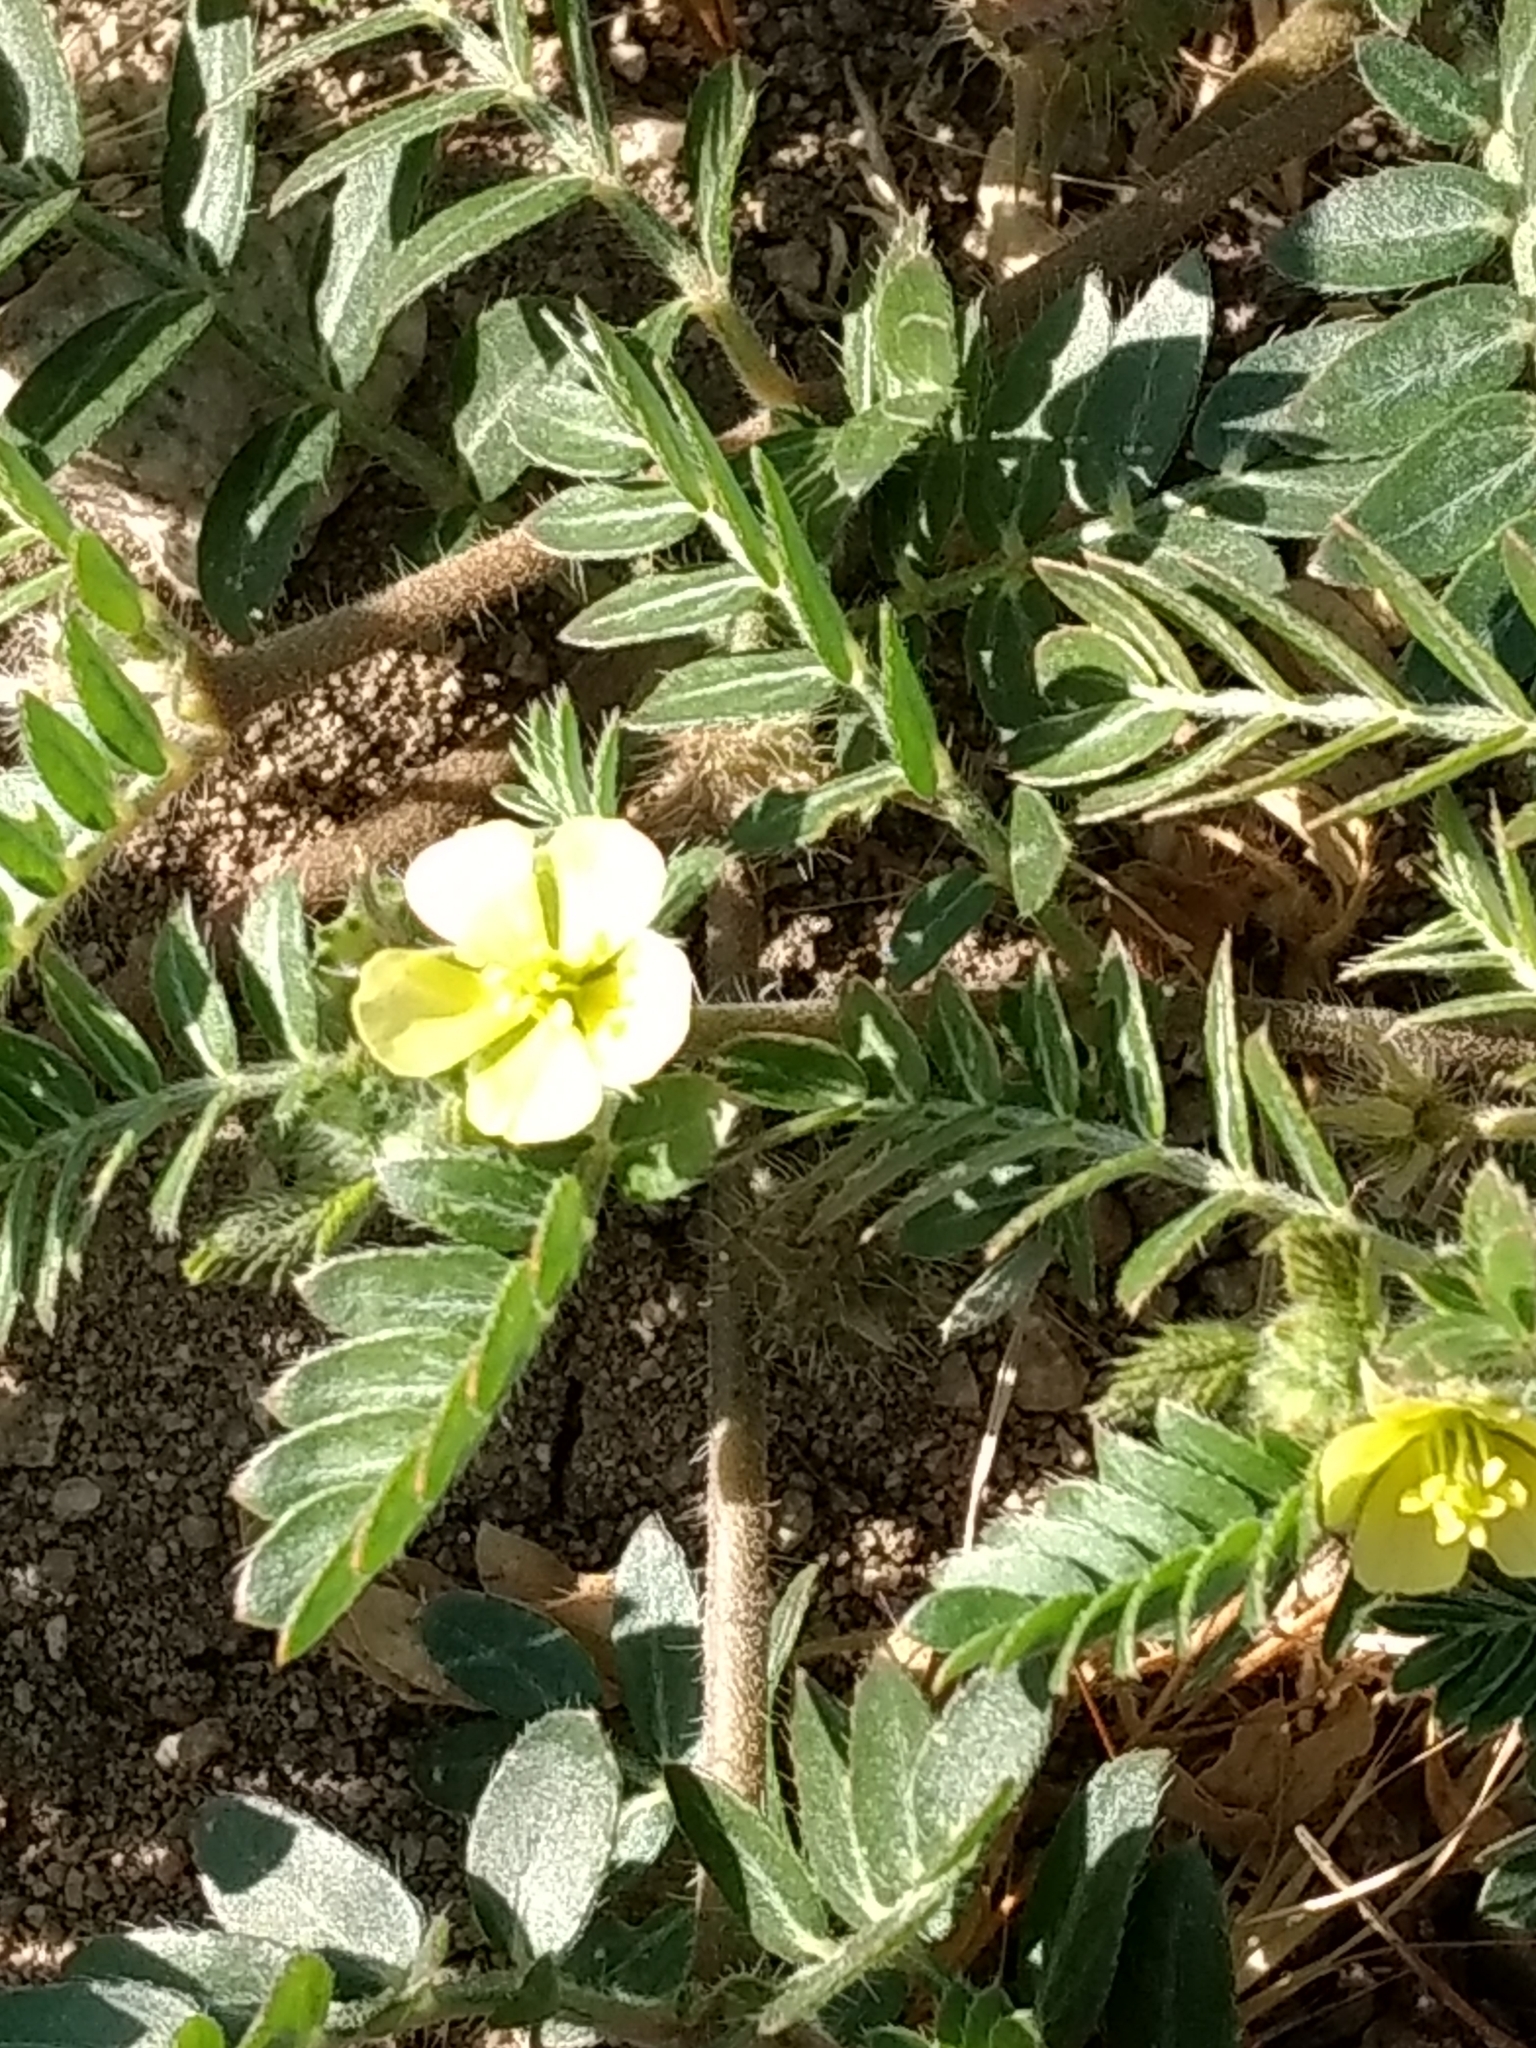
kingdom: Plantae
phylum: Tracheophyta
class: Magnoliopsida
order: Zygophyllales
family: Zygophyllaceae
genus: Tribulus
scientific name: Tribulus terrestris
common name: Puncturevine
